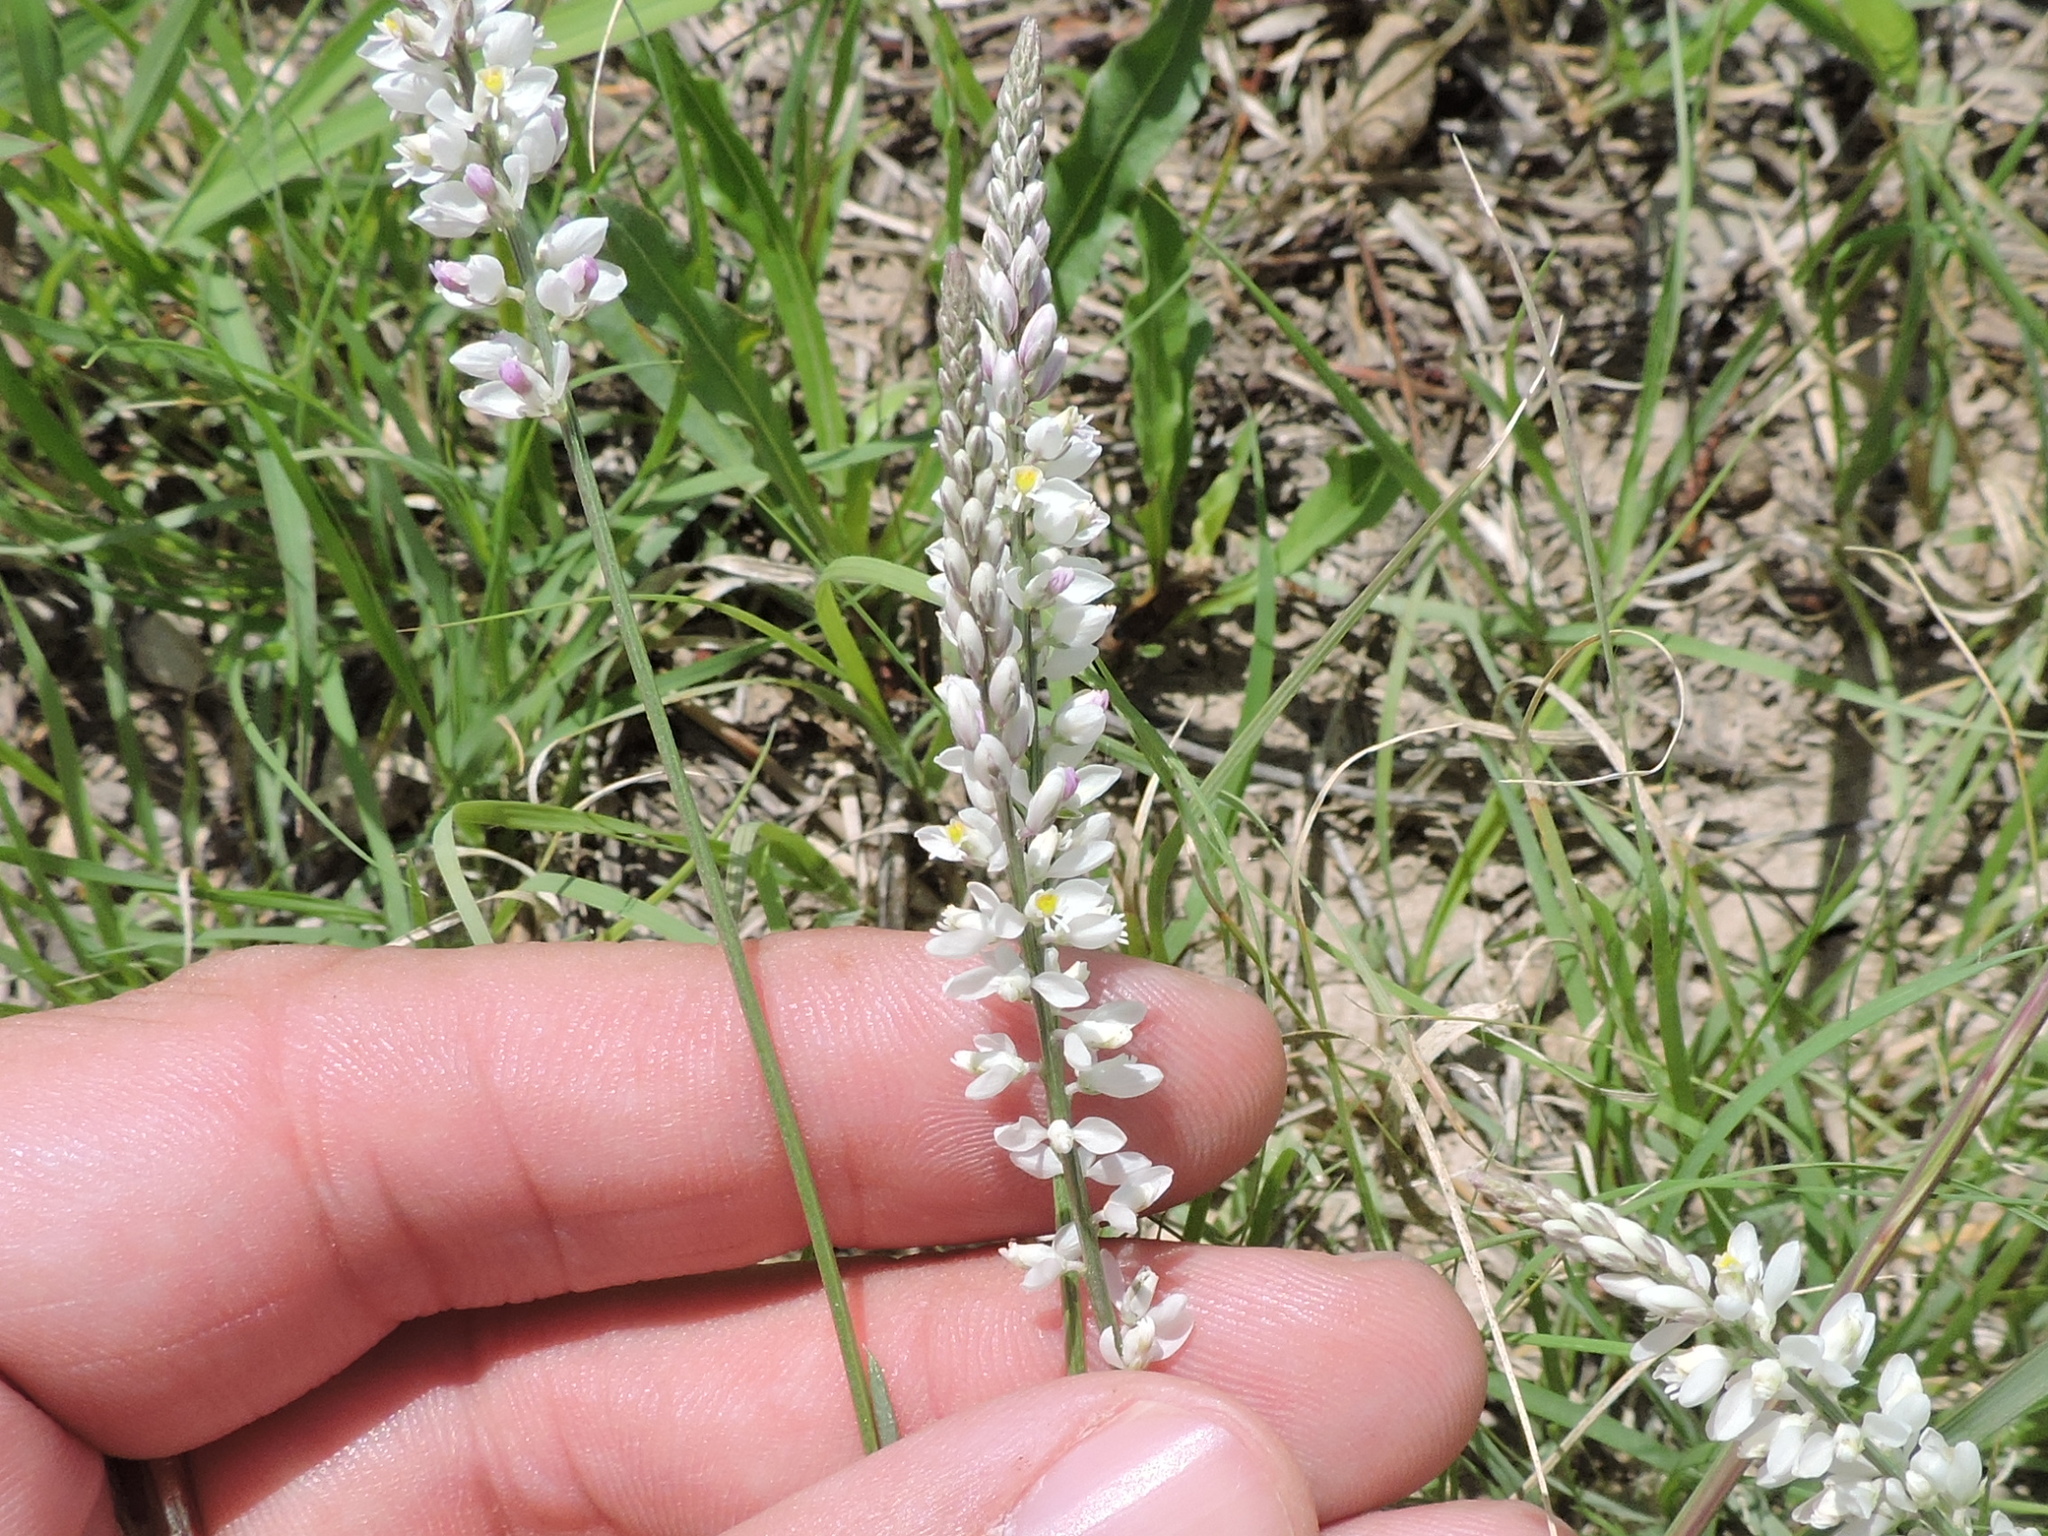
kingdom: Plantae
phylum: Tracheophyta
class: Magnoliopsida
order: Fabales
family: Polygalaceae
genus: Polygala
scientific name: Polygala alba
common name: White milkwort
